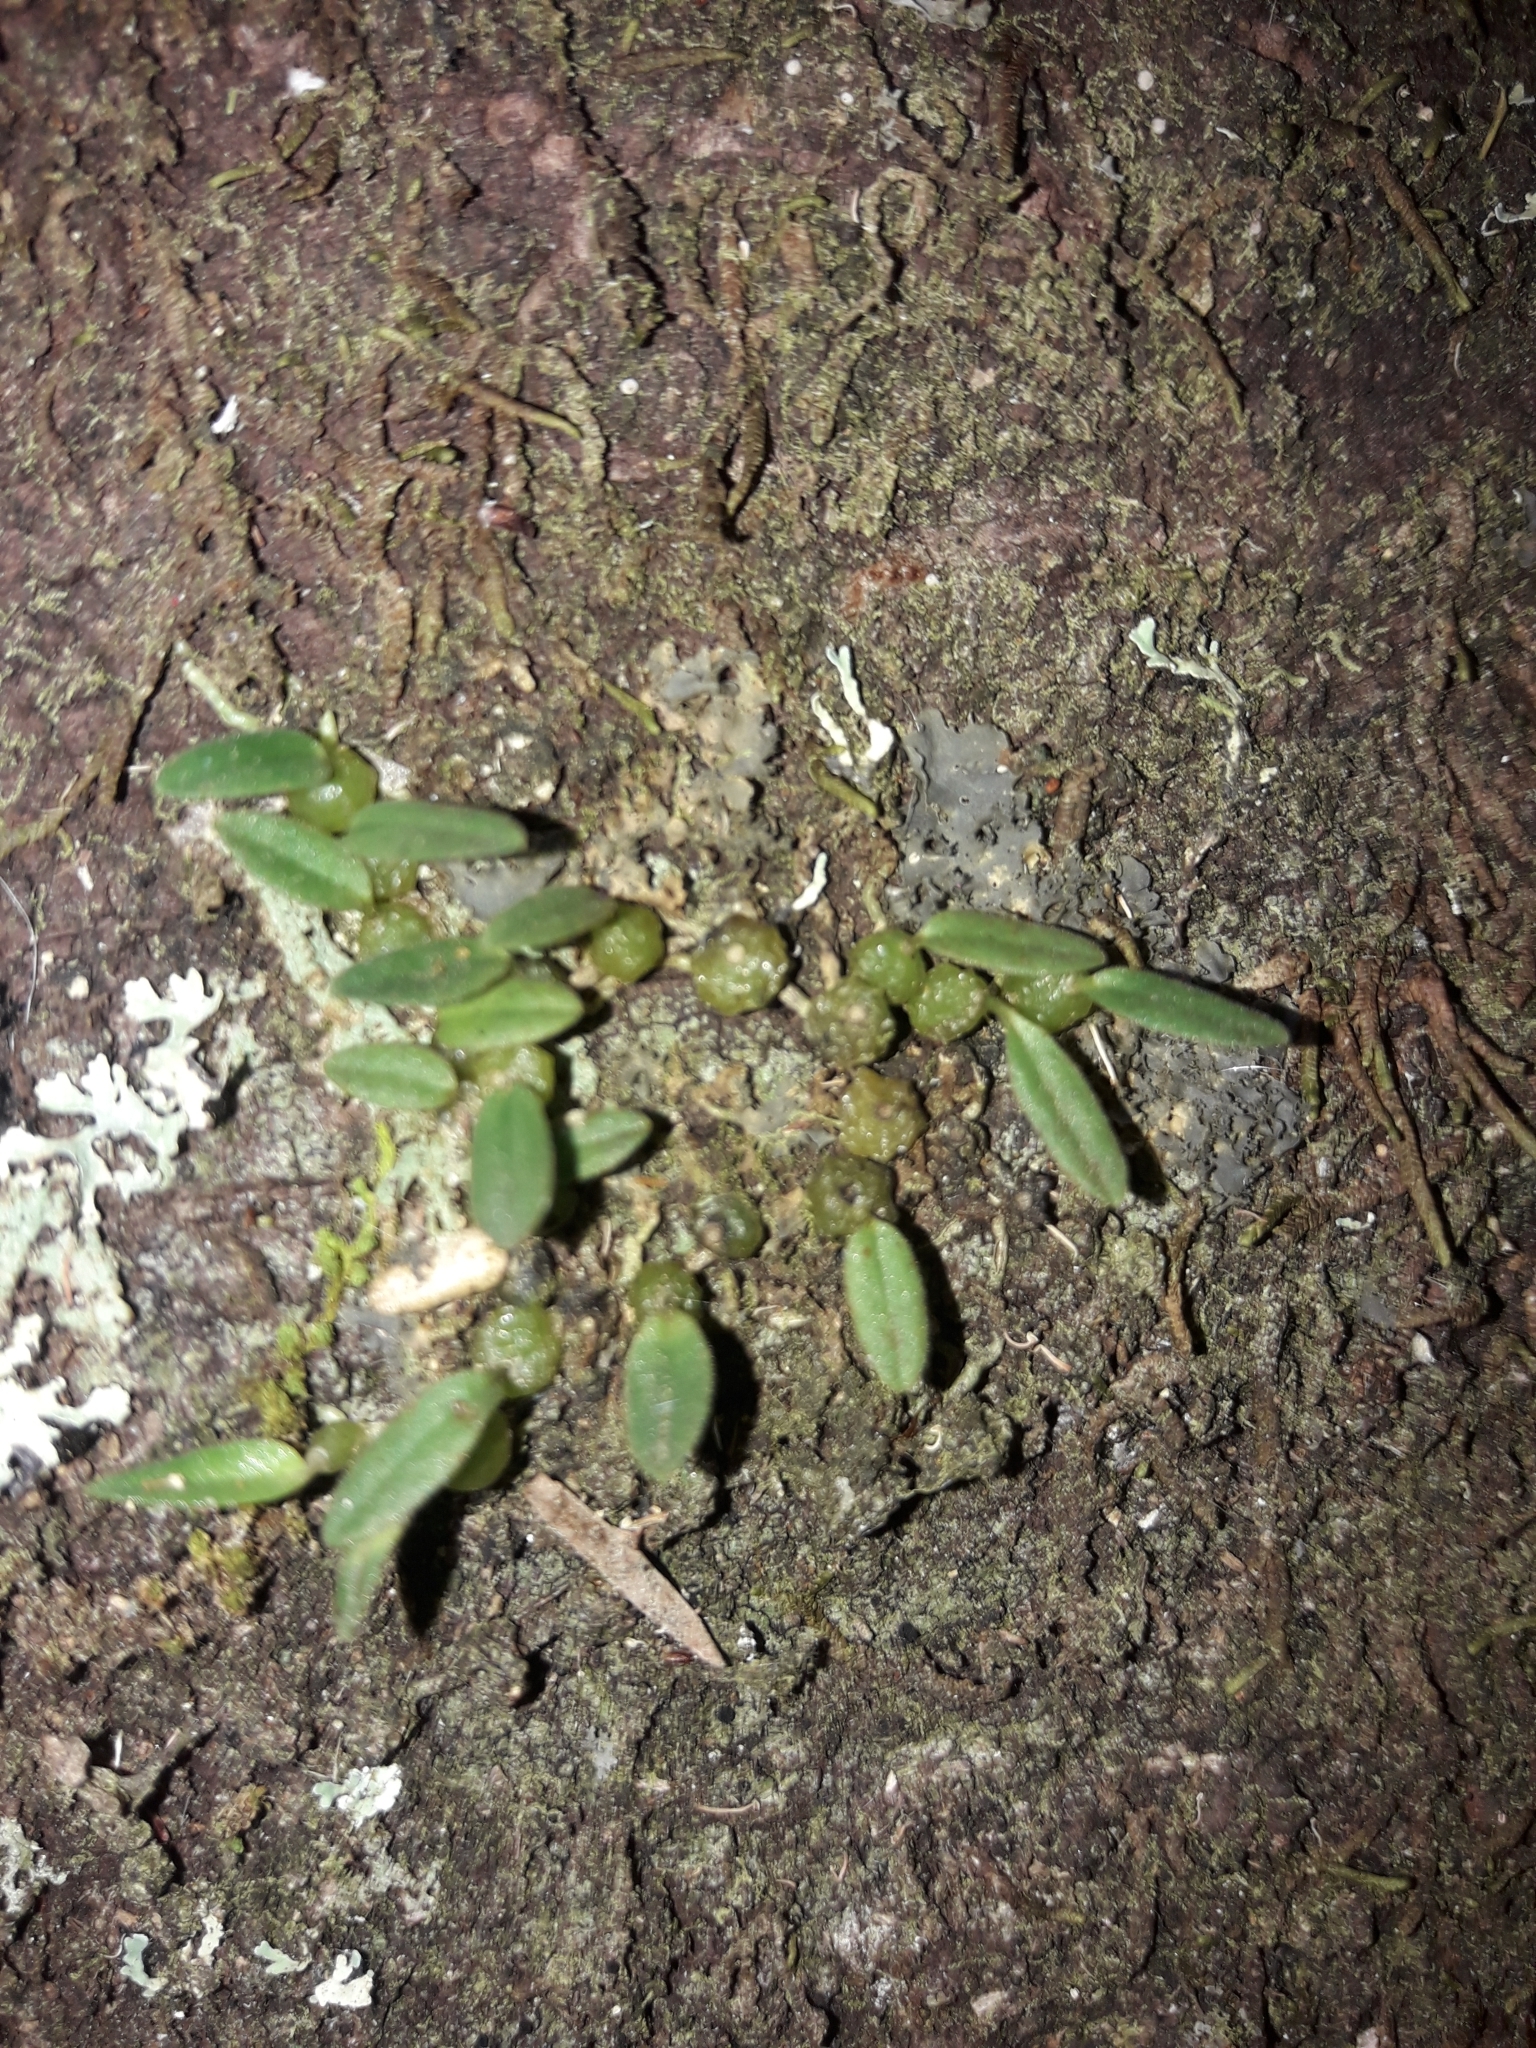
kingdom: Plantae
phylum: Tracheophyta
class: Liliopsida
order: Asparagales
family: Orchidaceae
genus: Bulbophyllum
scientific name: Bulbophyllum pygmaeum
